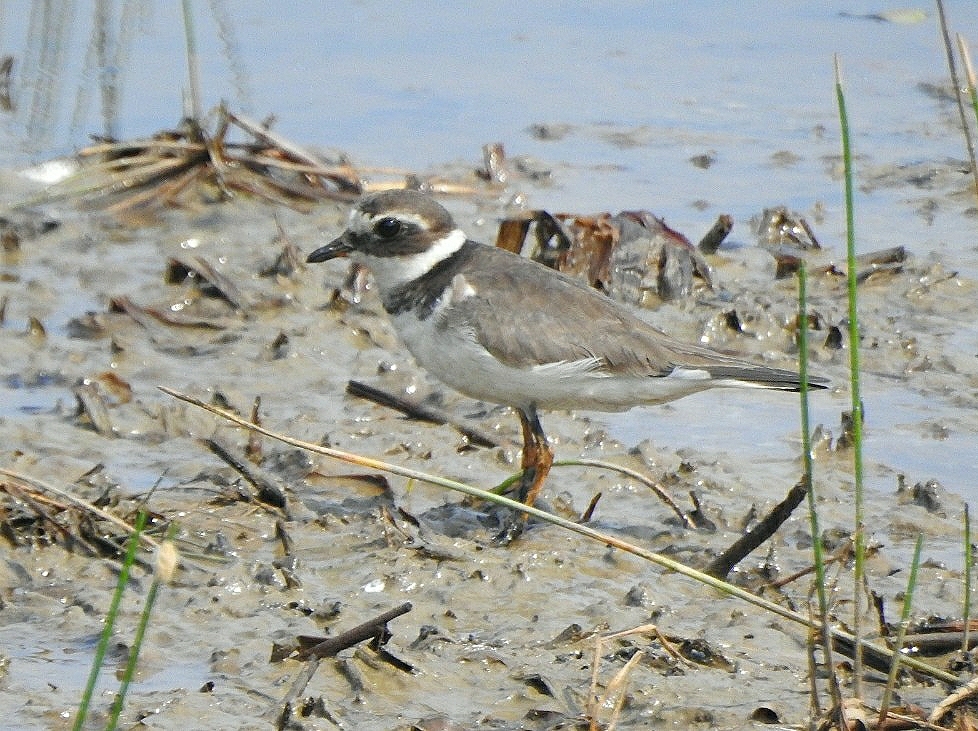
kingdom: Animalia
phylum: Chordata
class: Aves
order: Charadriiformes
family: Charadriidae
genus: Charadrius
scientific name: Charadrius hiaticula
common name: Common ringed plover
